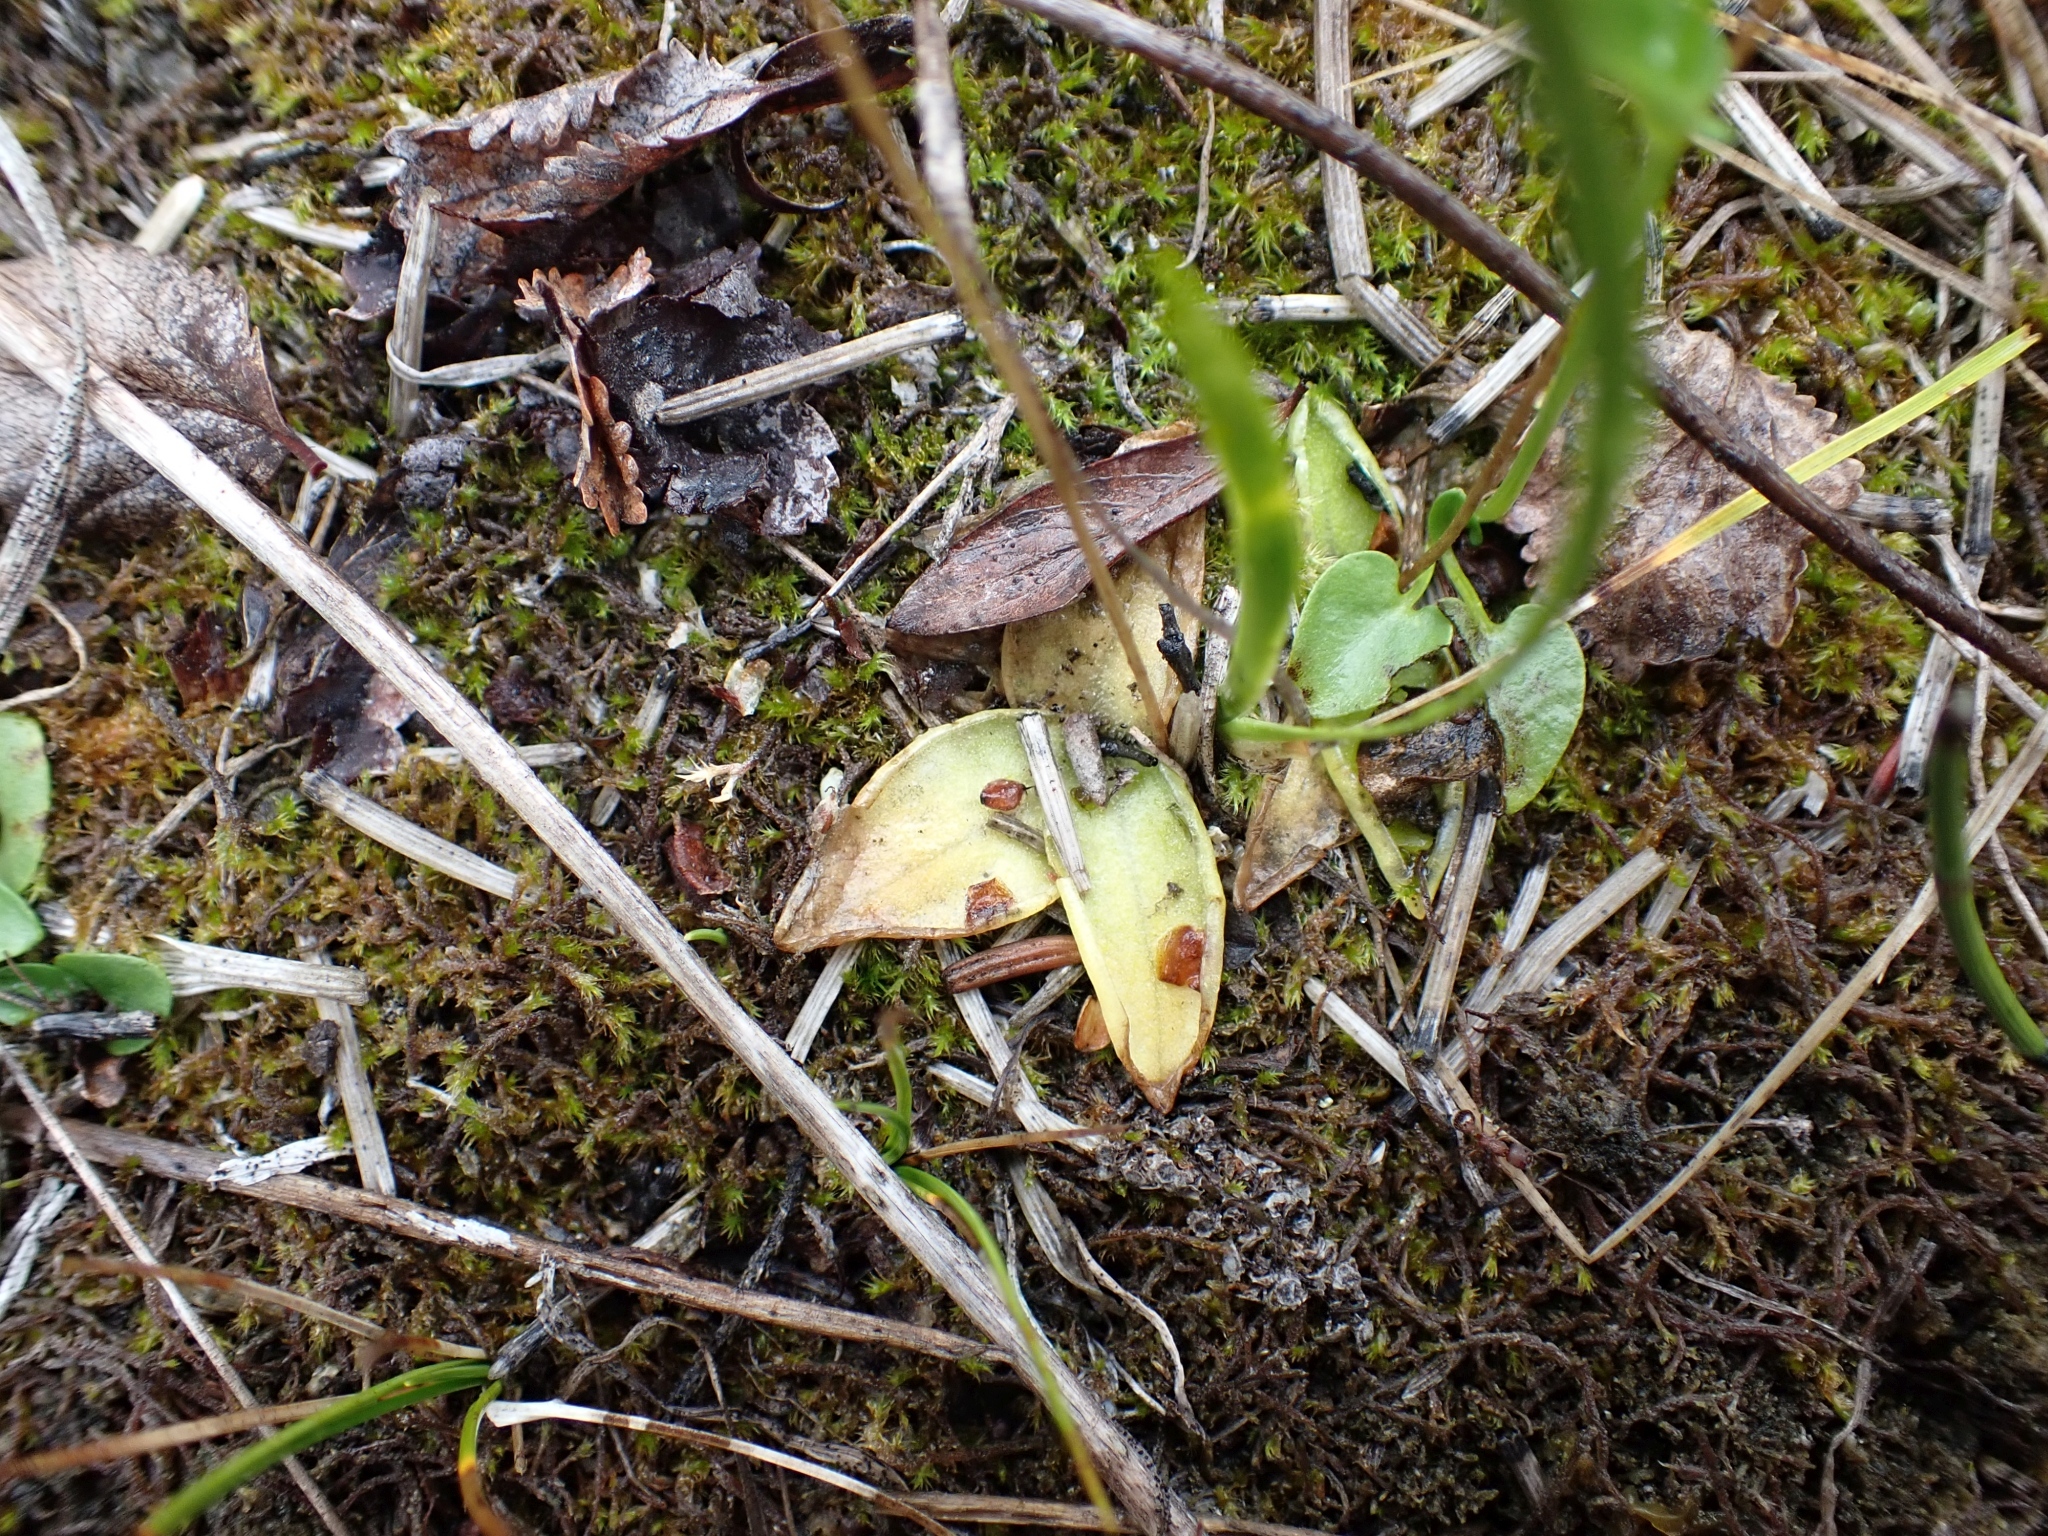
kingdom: Plantae
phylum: Tracheophyta
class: Magnoliopsida
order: Lamiales
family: Lentibulariaceae
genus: Pinguicula
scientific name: Pinguicula vulgaris
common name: Common butterwort
